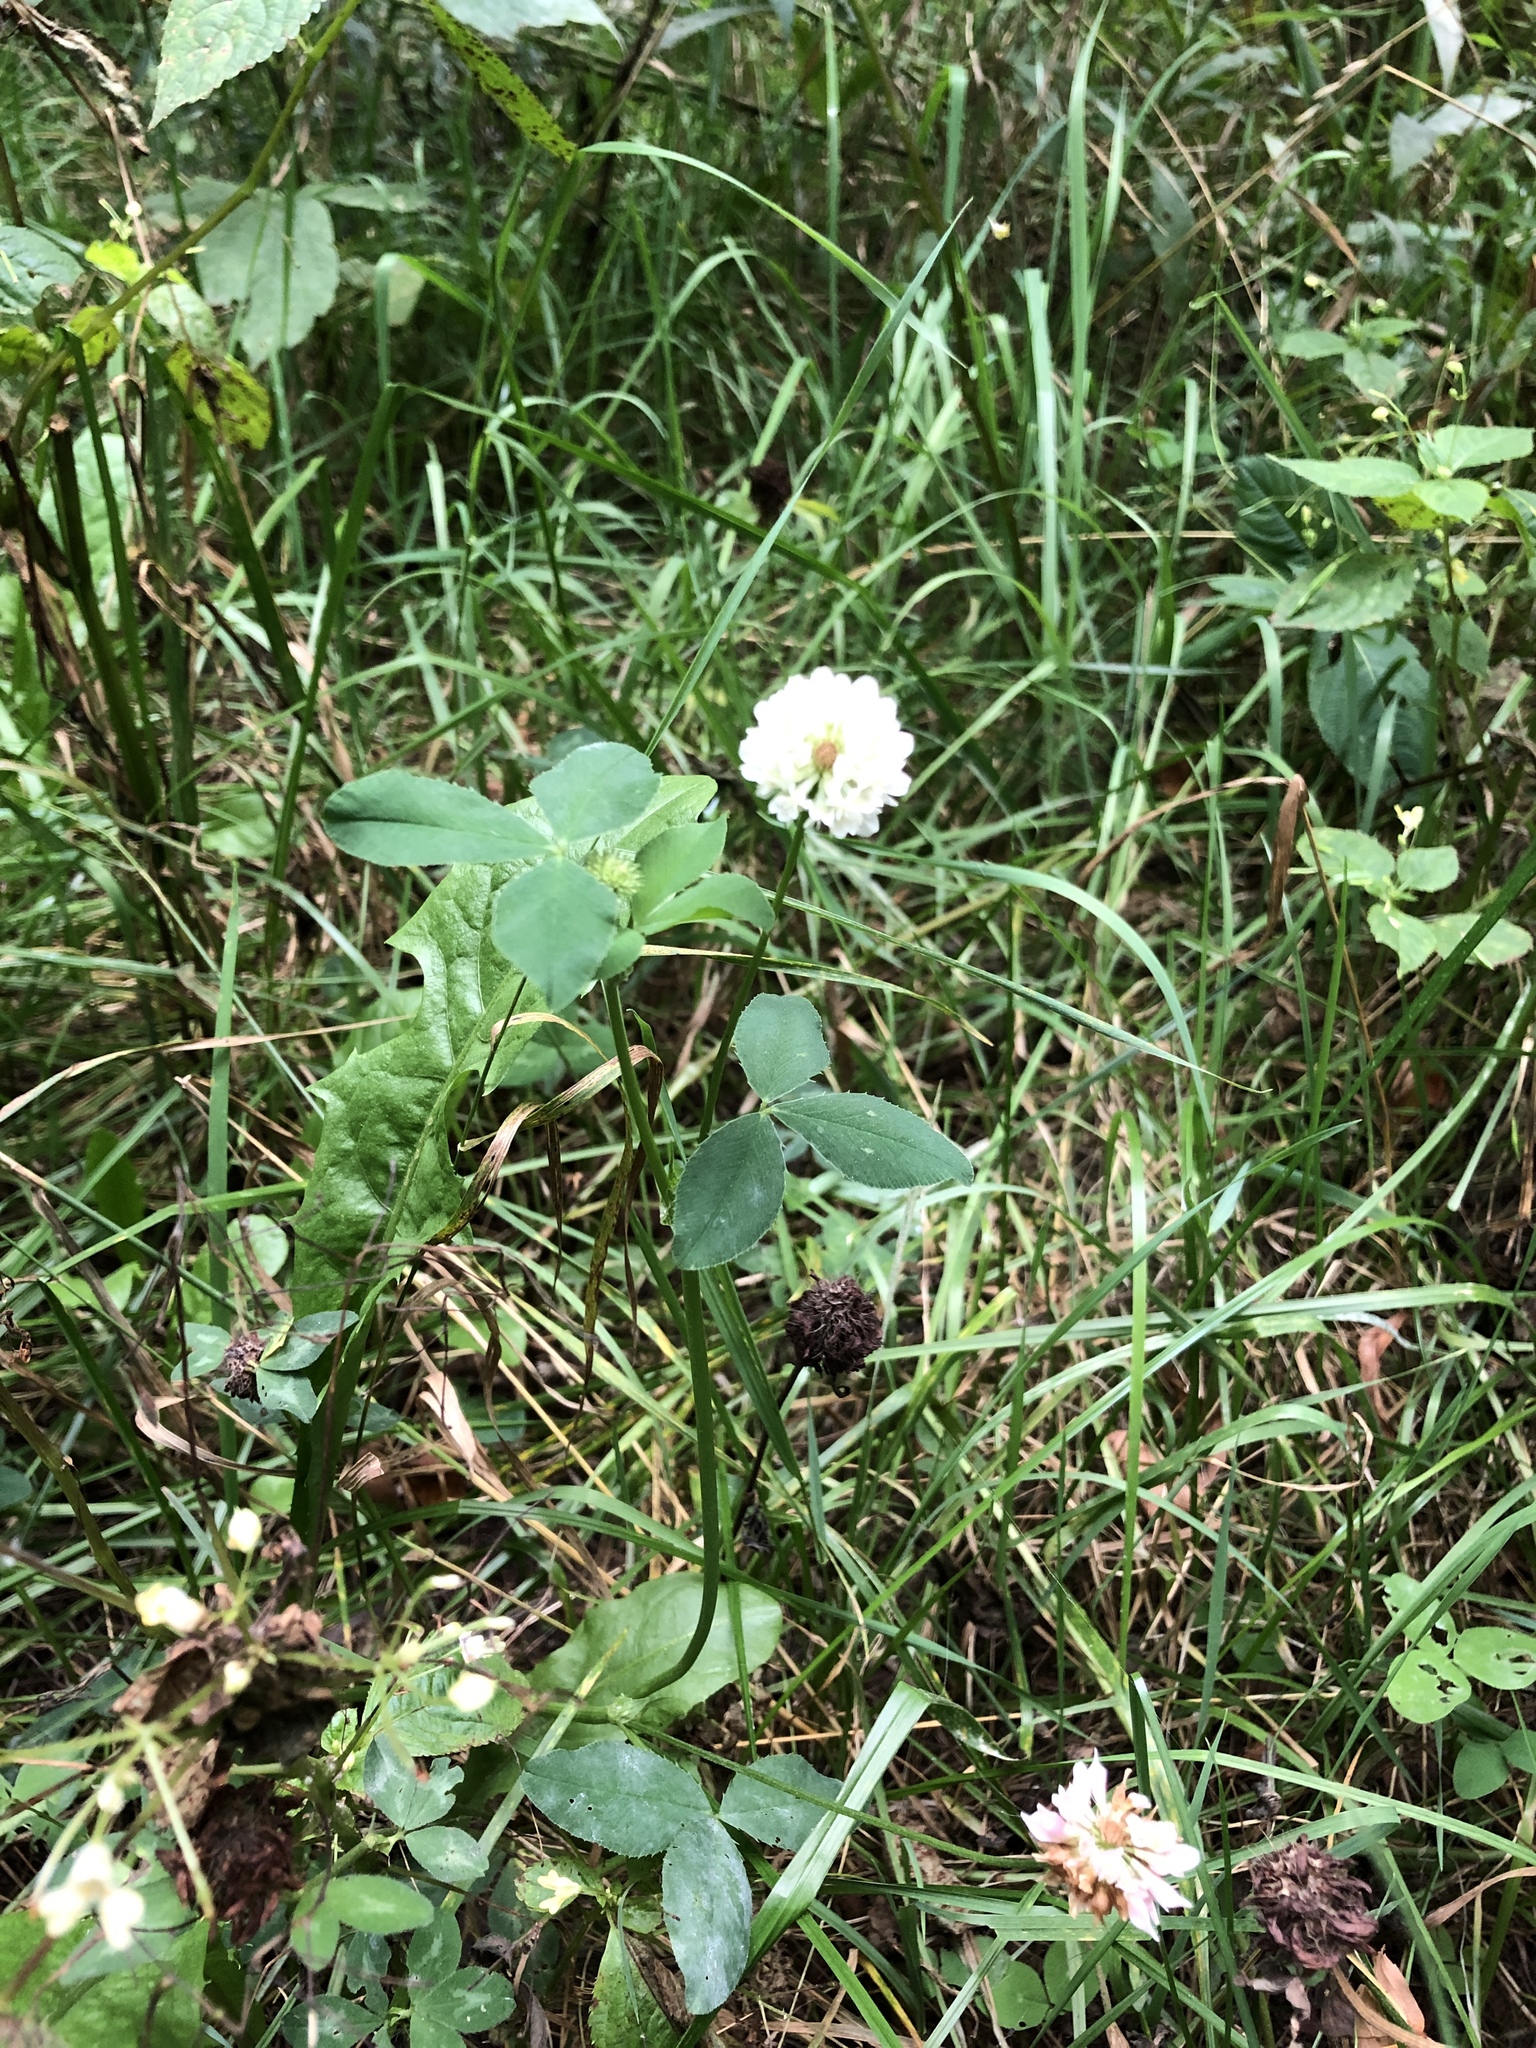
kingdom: Plantae
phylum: Tracheophyta
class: Magnoliopsida
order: Fabales
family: Fabaceae
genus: Trifolium
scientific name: Trifolium repens
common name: White clover
